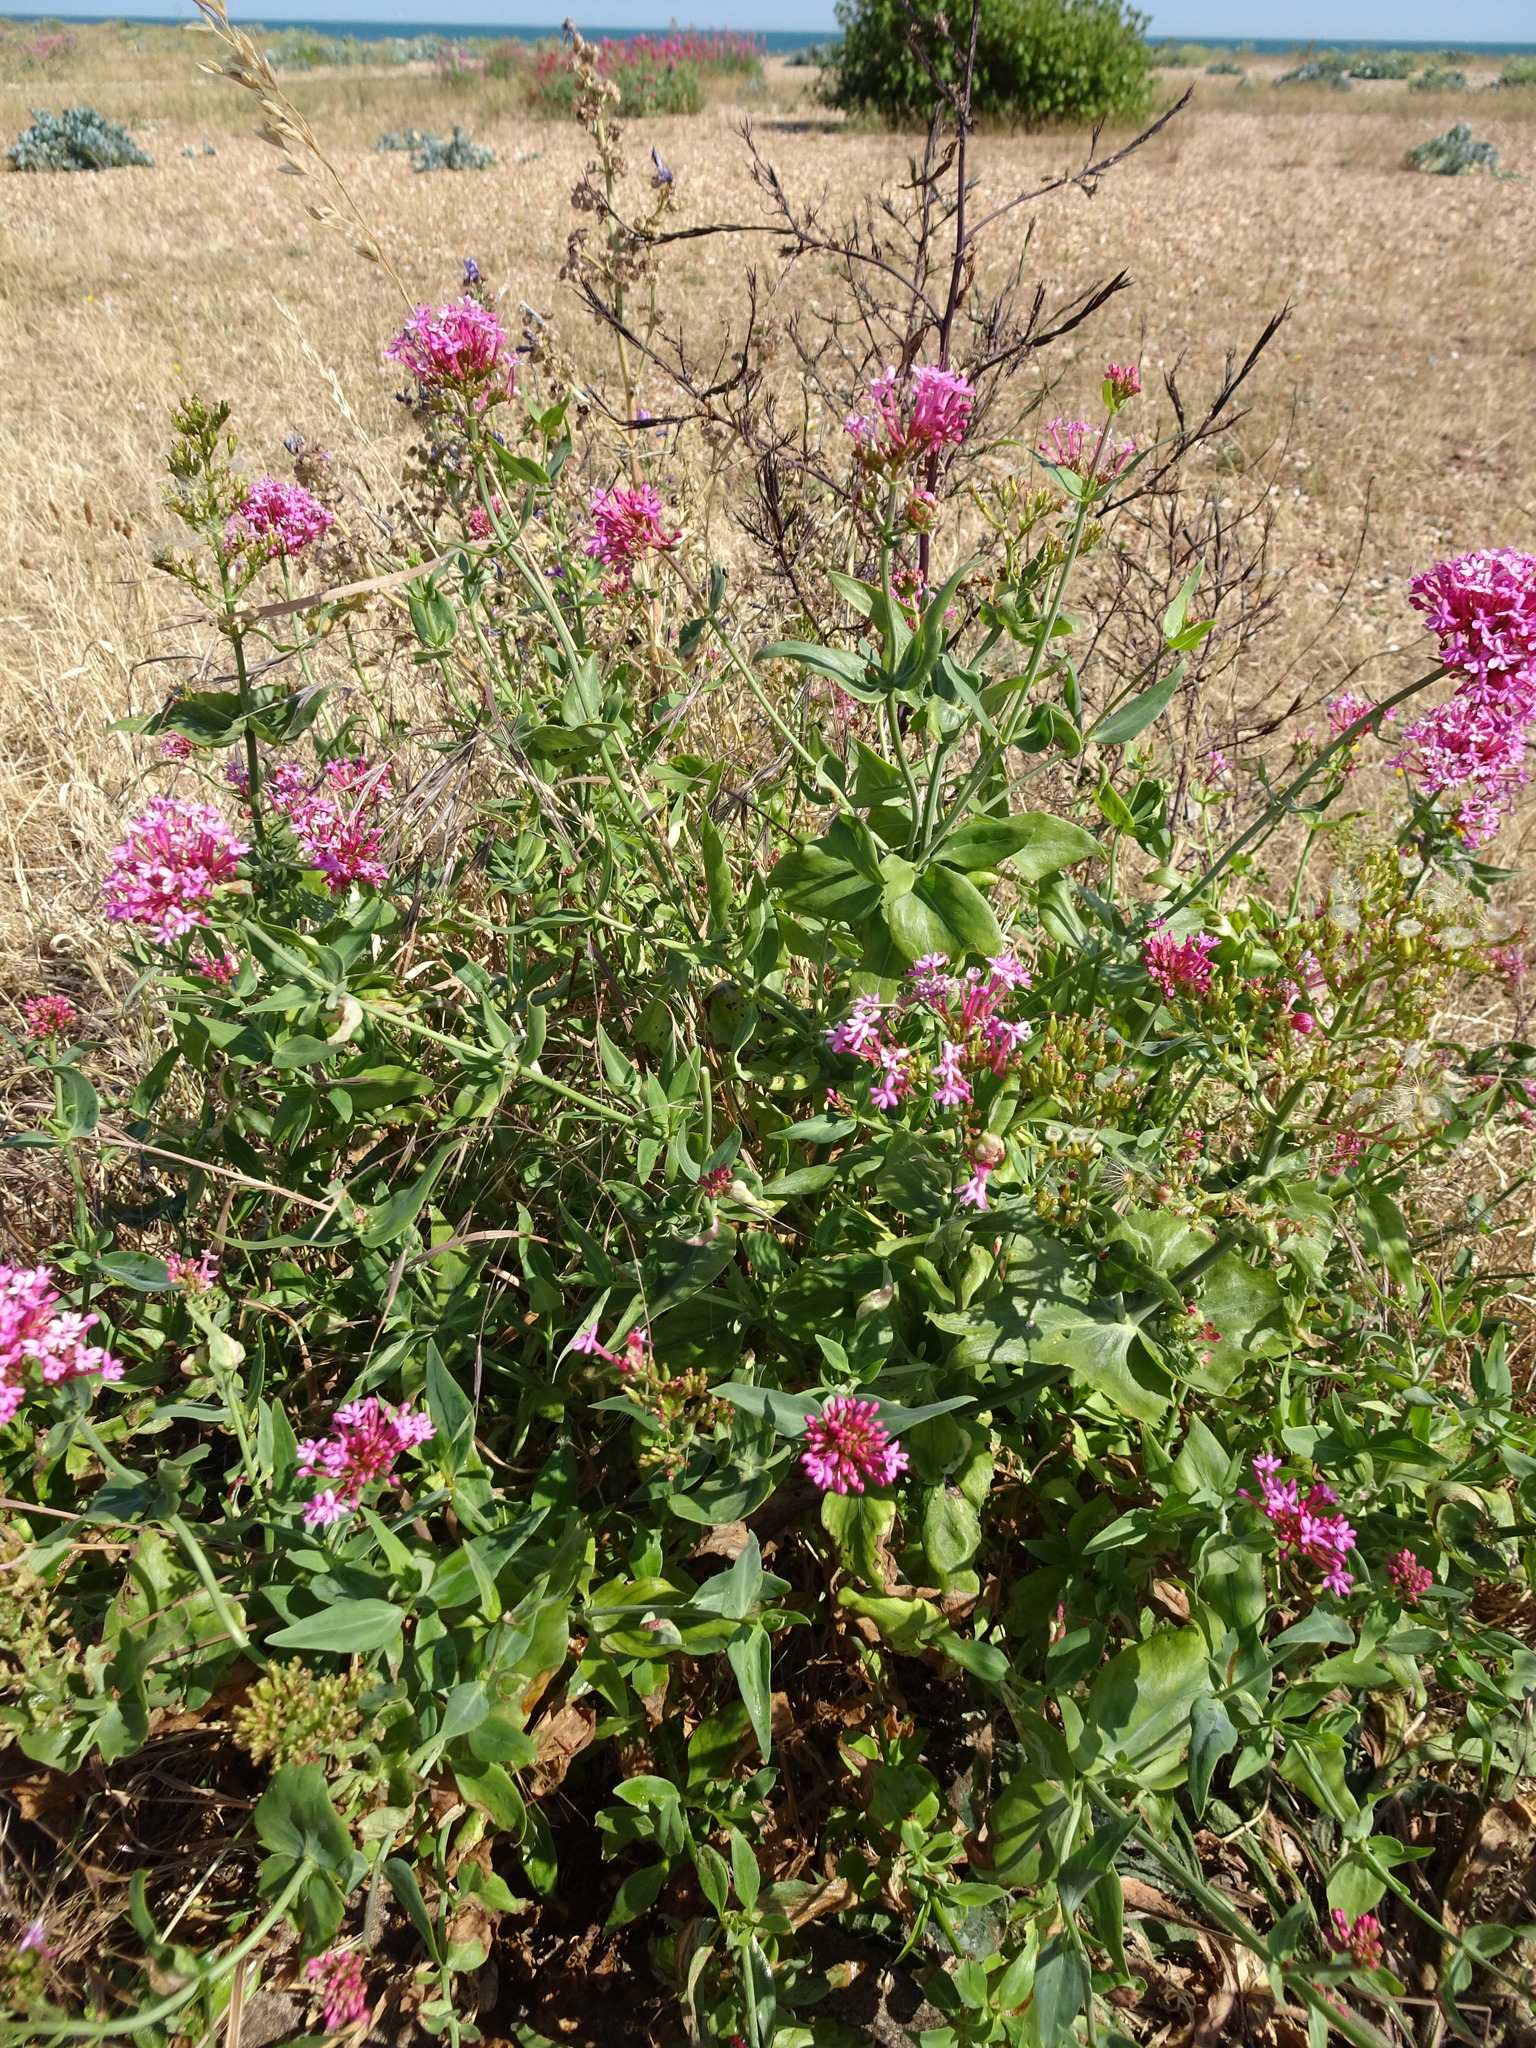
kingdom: Plantae
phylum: Tracheophyta
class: Magnoliopsida
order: Dipsacales
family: Caprifoliaceae
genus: Centranthus
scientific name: Centranthus ruber
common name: Red valerian
